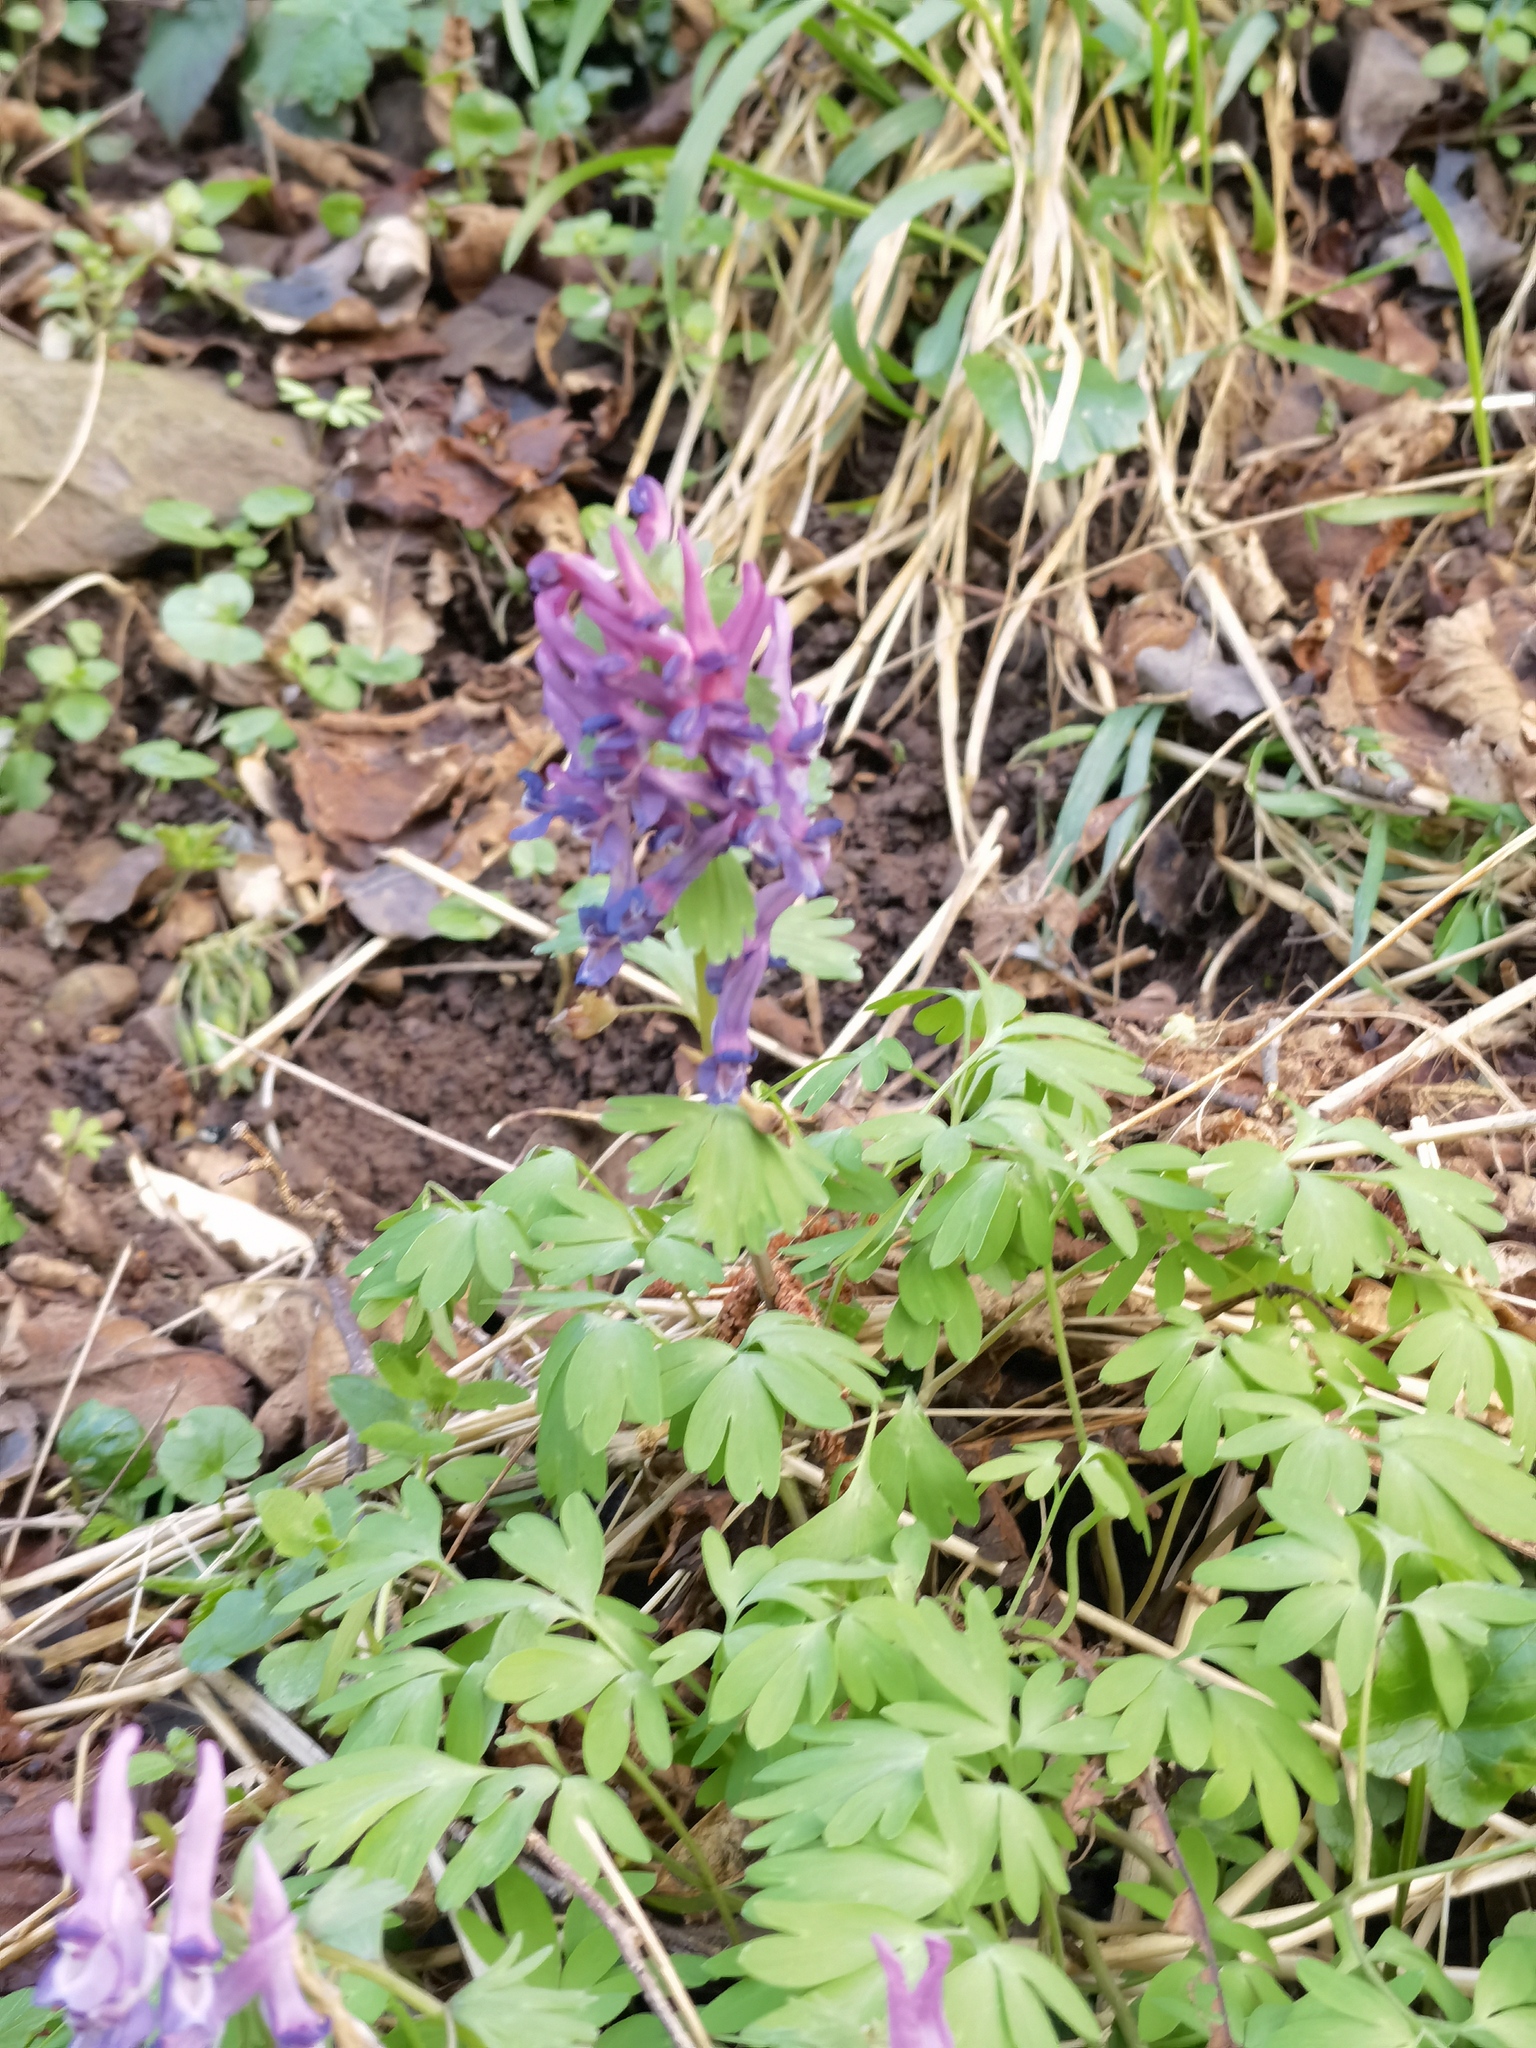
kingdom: Plantae
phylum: Tracheophyta
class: Magnoliopsida
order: Ranunculales
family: Papaveraceae
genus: Corydalis
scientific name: Corydalis solida
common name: Bird-in-a-bush
